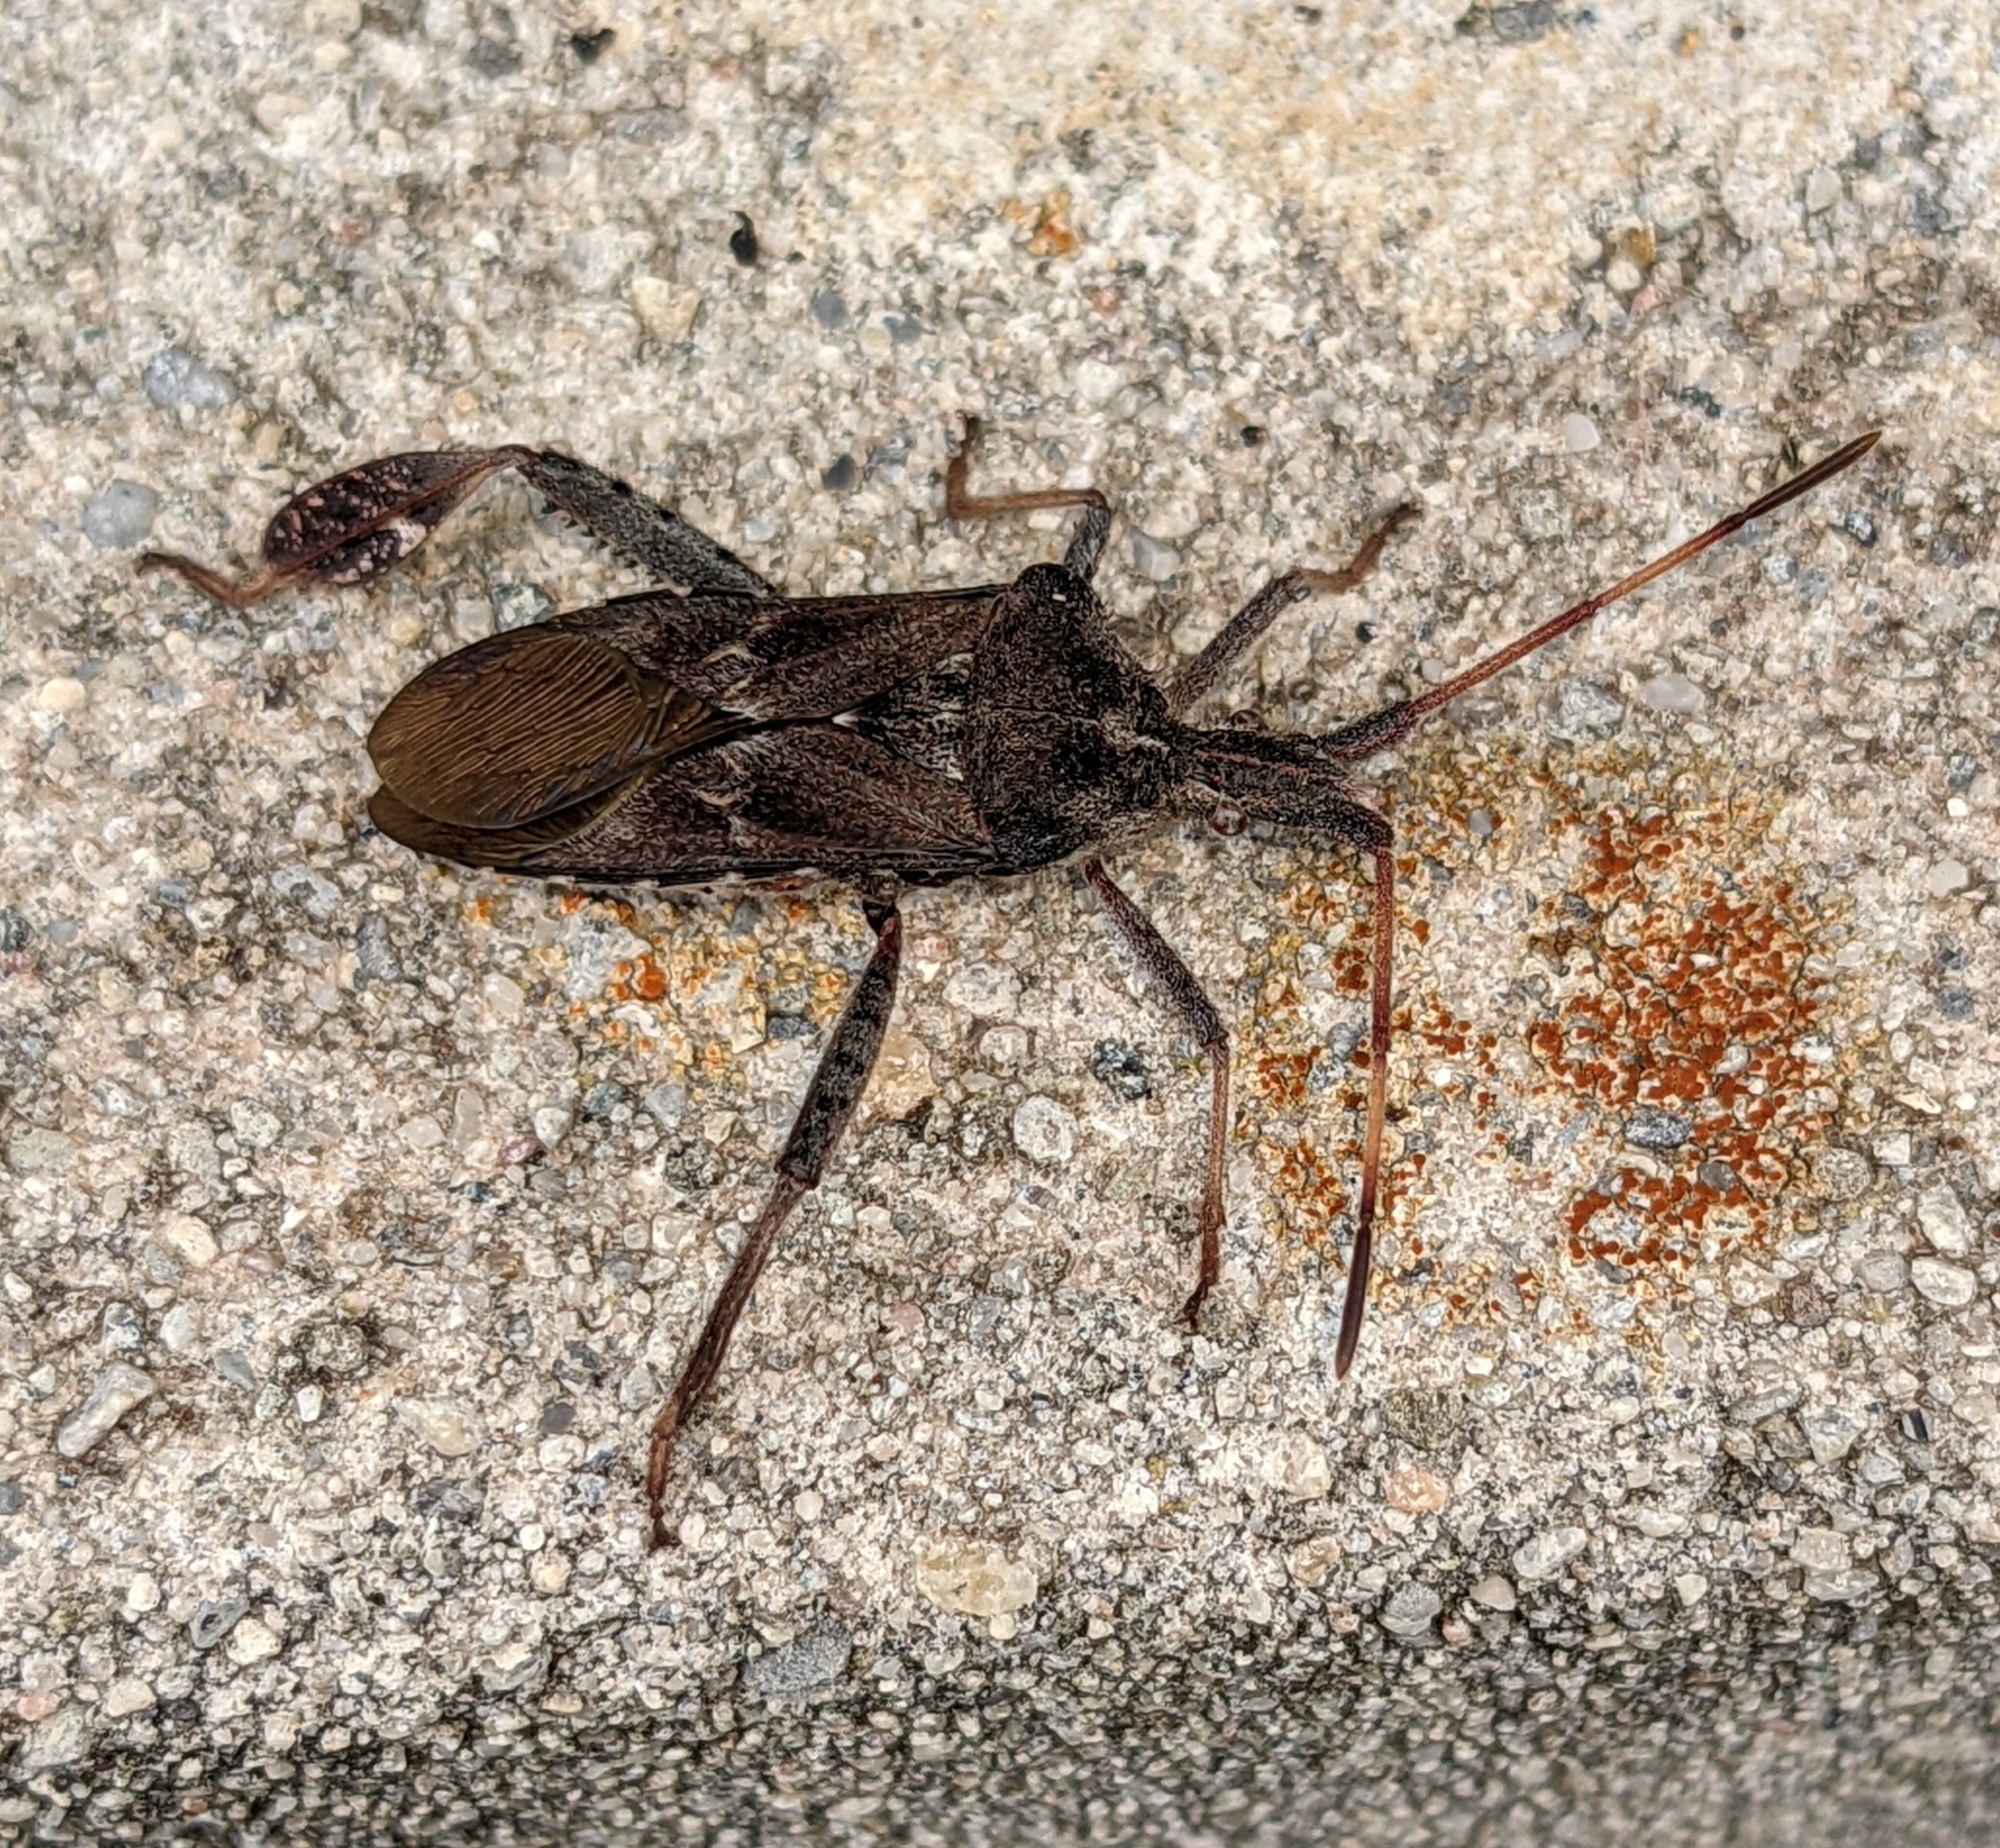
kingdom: Animalia
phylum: Arthropoda
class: Insecta
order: Hemiptera
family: Coreidae
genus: Leptoglossus
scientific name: Leptoglossus corculus
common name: Southern pine seed bug
